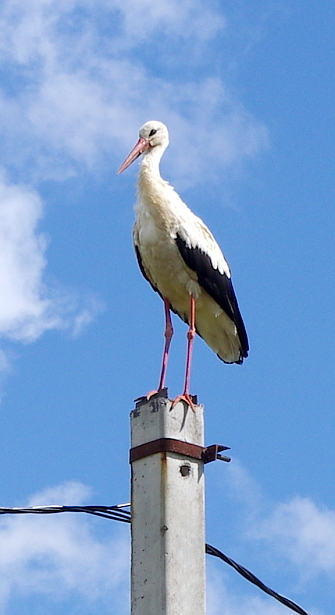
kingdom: Animalia
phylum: Chordata
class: Aves
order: Ciconiiformes
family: Ciconiidae
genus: Ciconia
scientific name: Ciconia ciconia
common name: White stork
